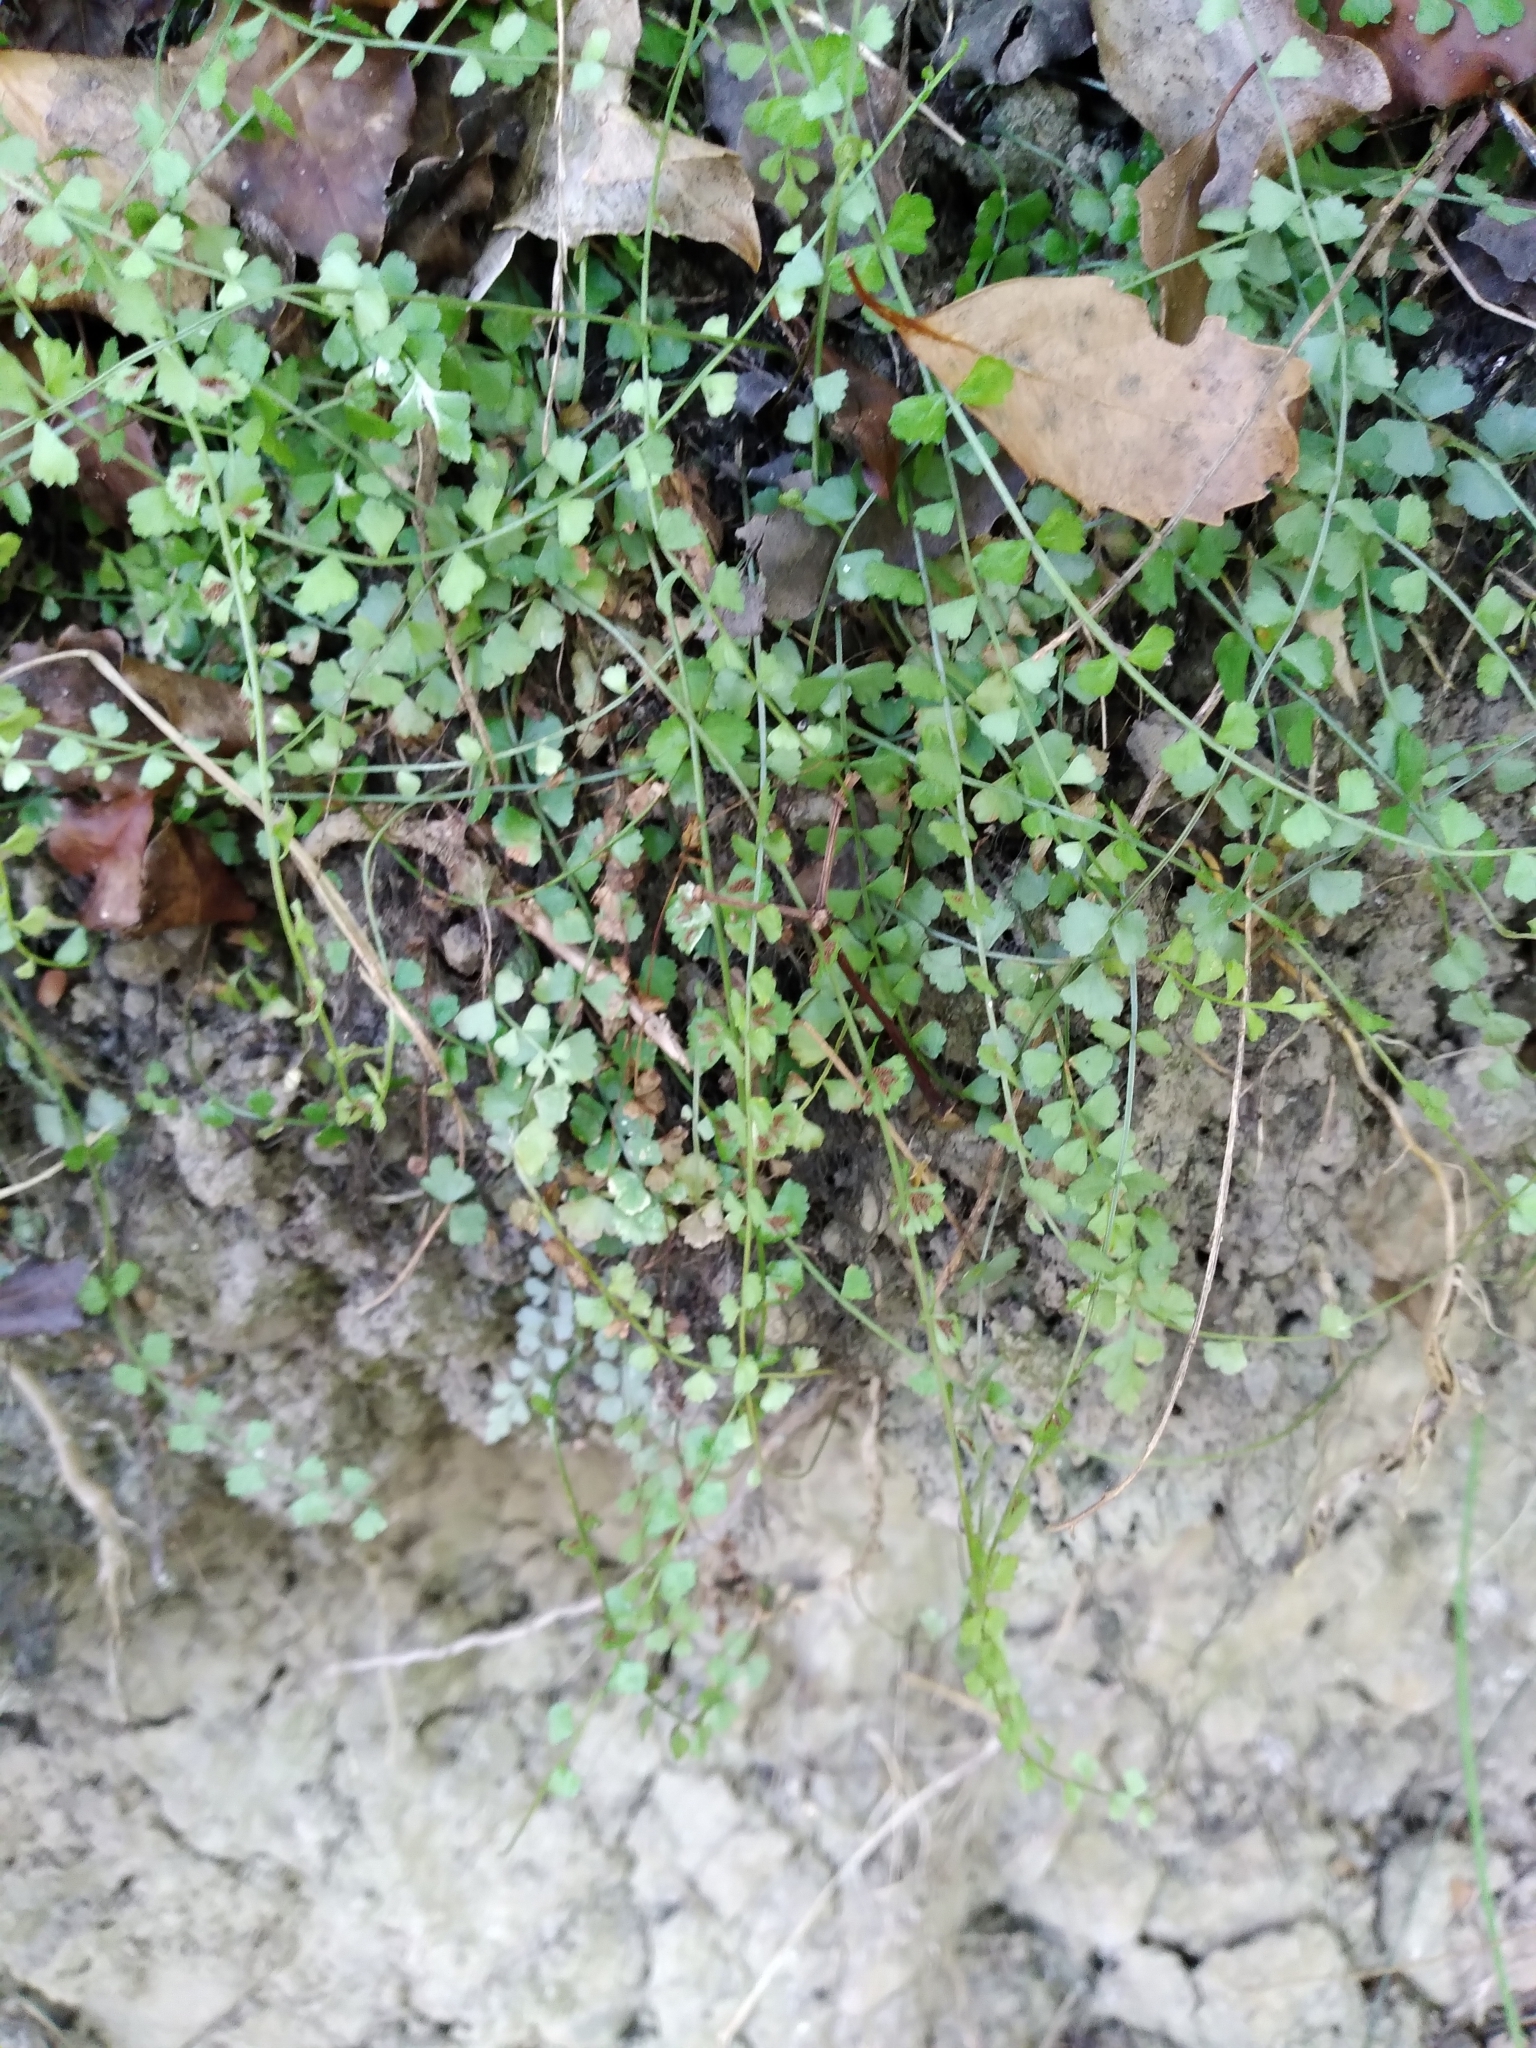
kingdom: Plantae
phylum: Tracheophyta
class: Polypodiopsida
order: Polypodiales
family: Aspleniaceae
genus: Asplenium
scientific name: Asplenium flabellifolium
